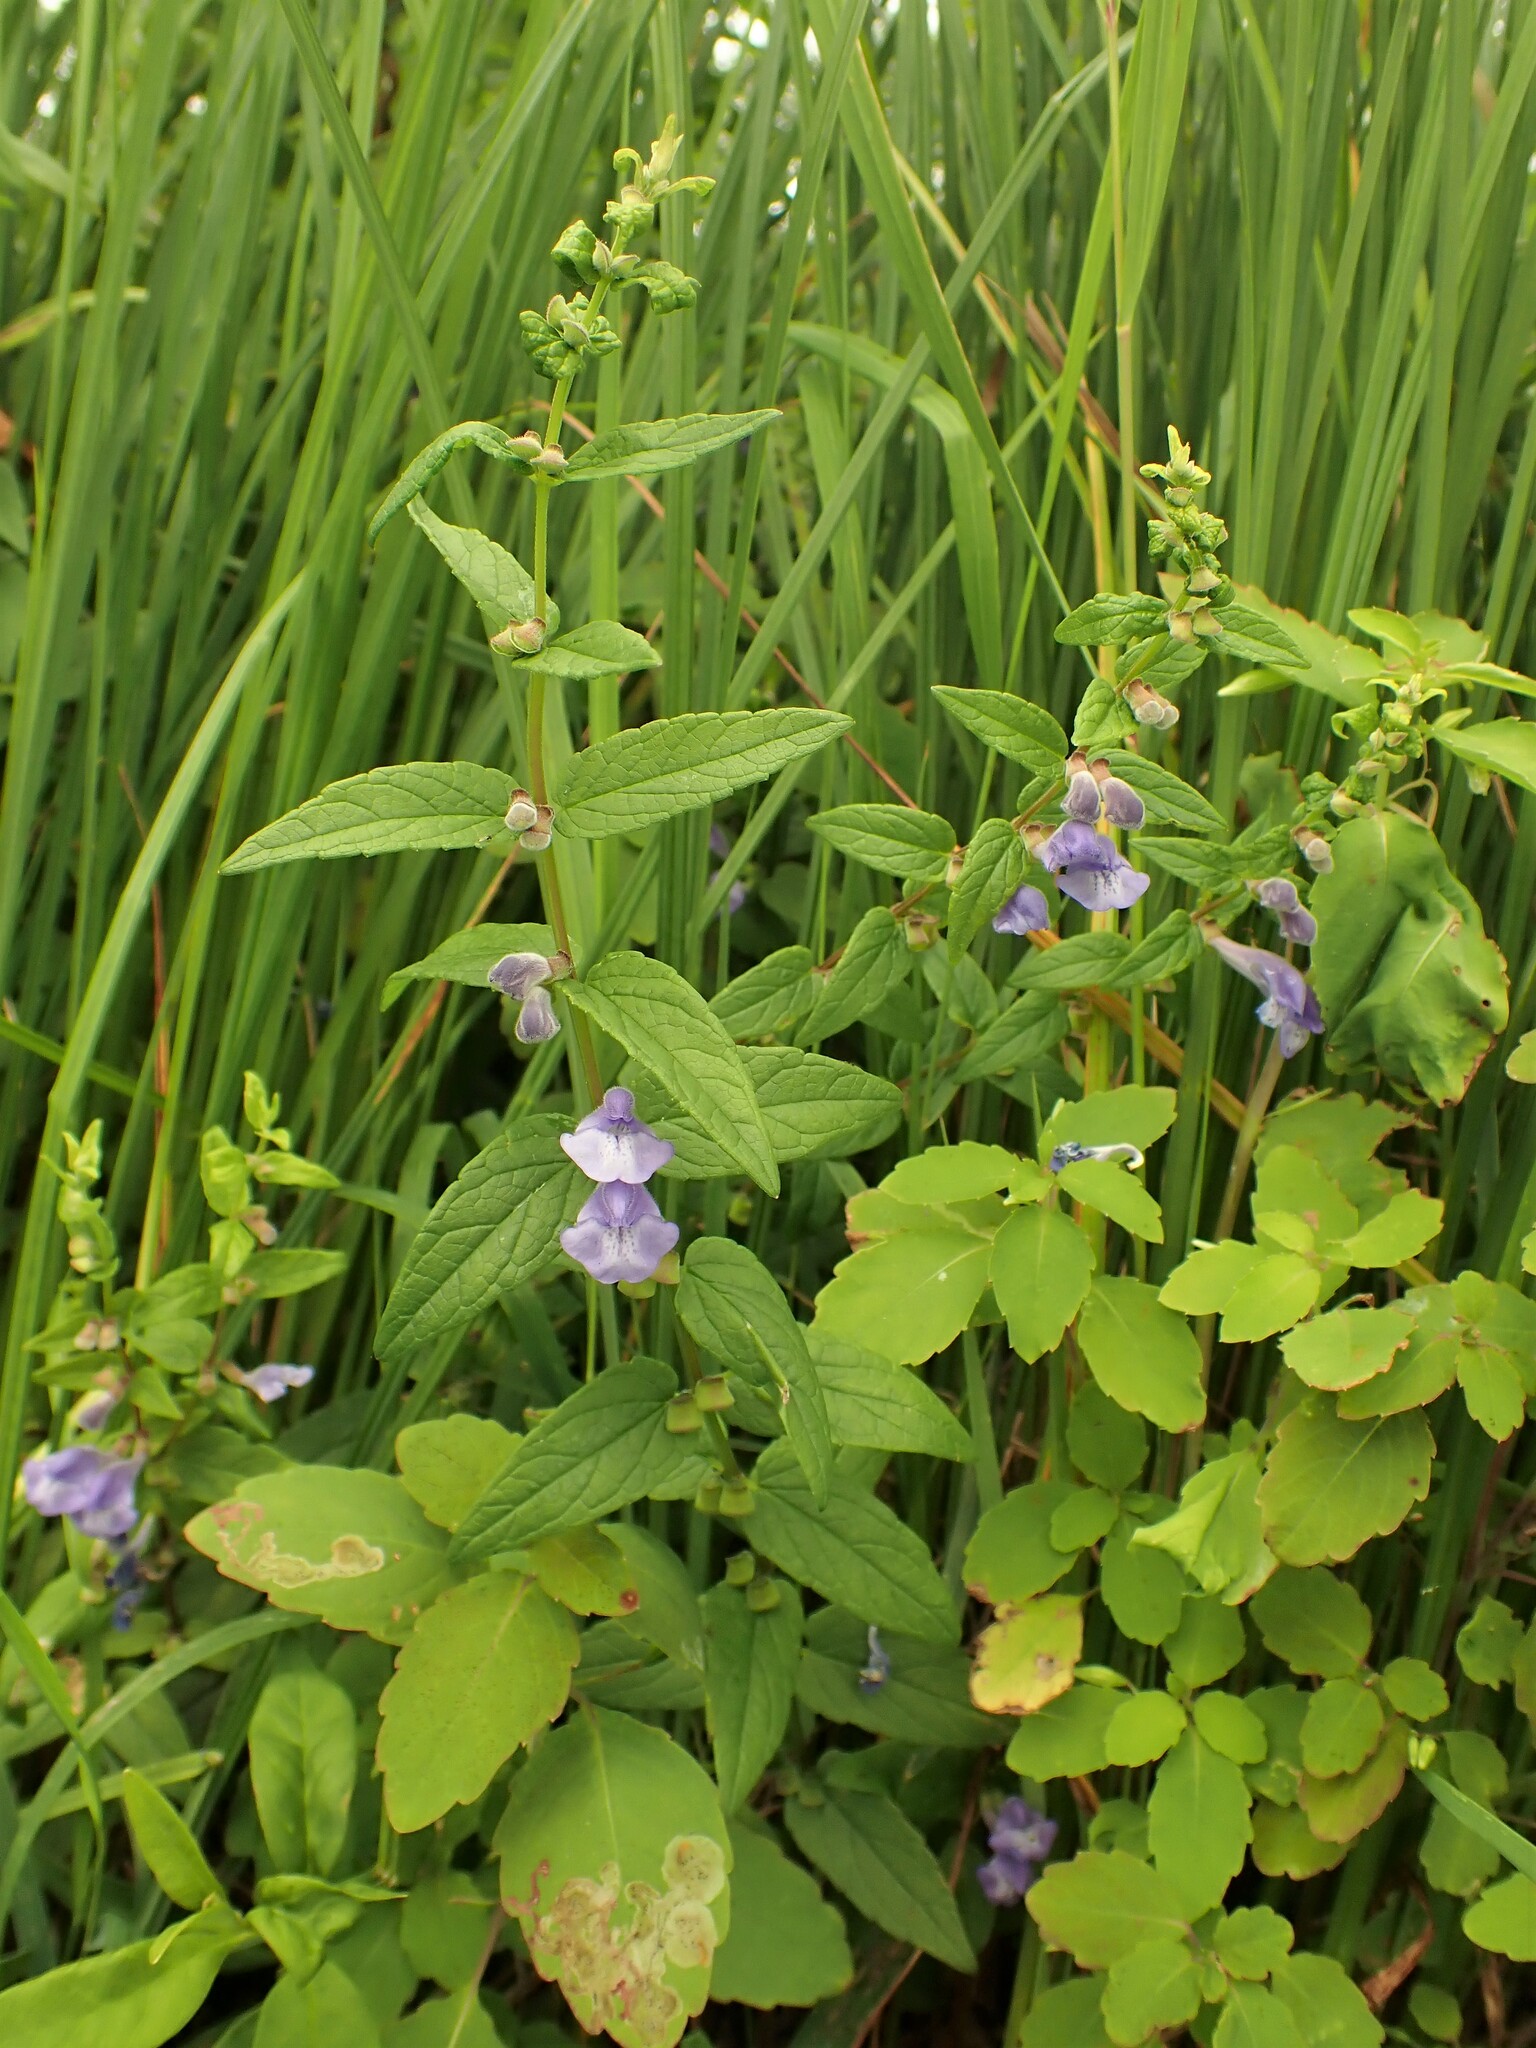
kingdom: Plantae
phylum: Tracheophyta
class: Magnoliopsida
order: Lamiales
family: Lamiaceae
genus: Scutellaria
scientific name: Scutellaria galericulata
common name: Skullcap
